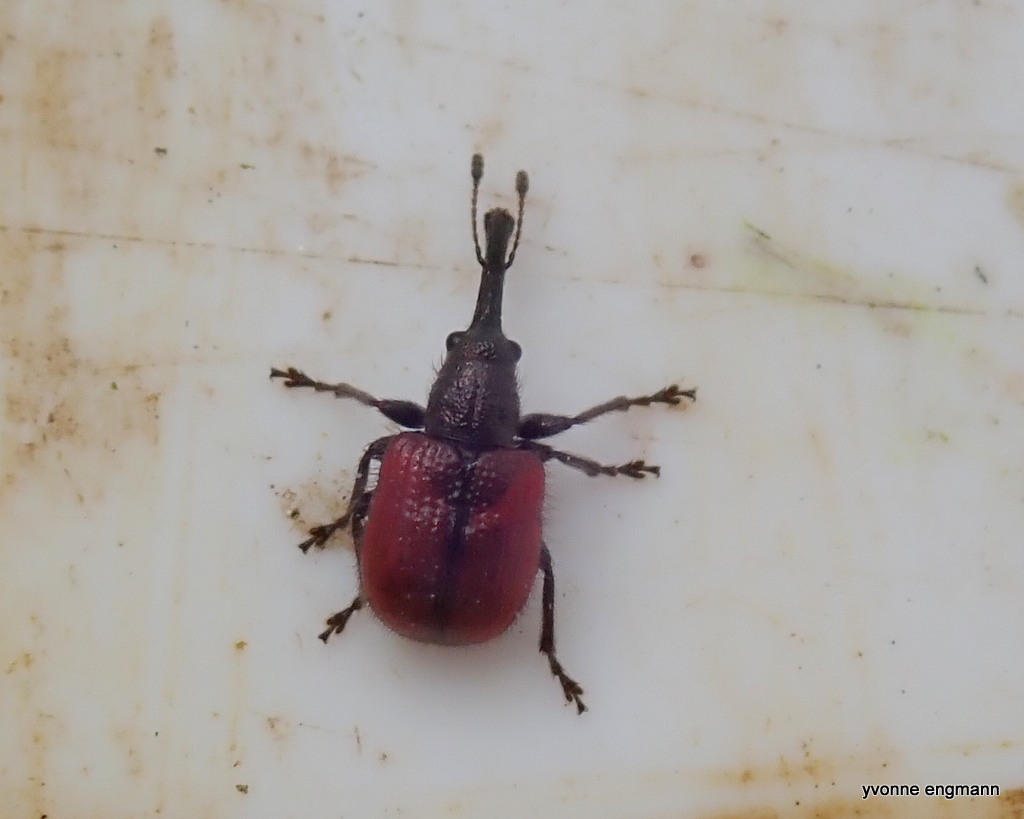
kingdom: Animalia
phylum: Arthropoda
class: Insecta
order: Coleoptera
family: Rhynchitidae
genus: Tatianaerhynchites
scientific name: Tatianaerhynchites aequatus
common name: Apple fruit rhynchites
